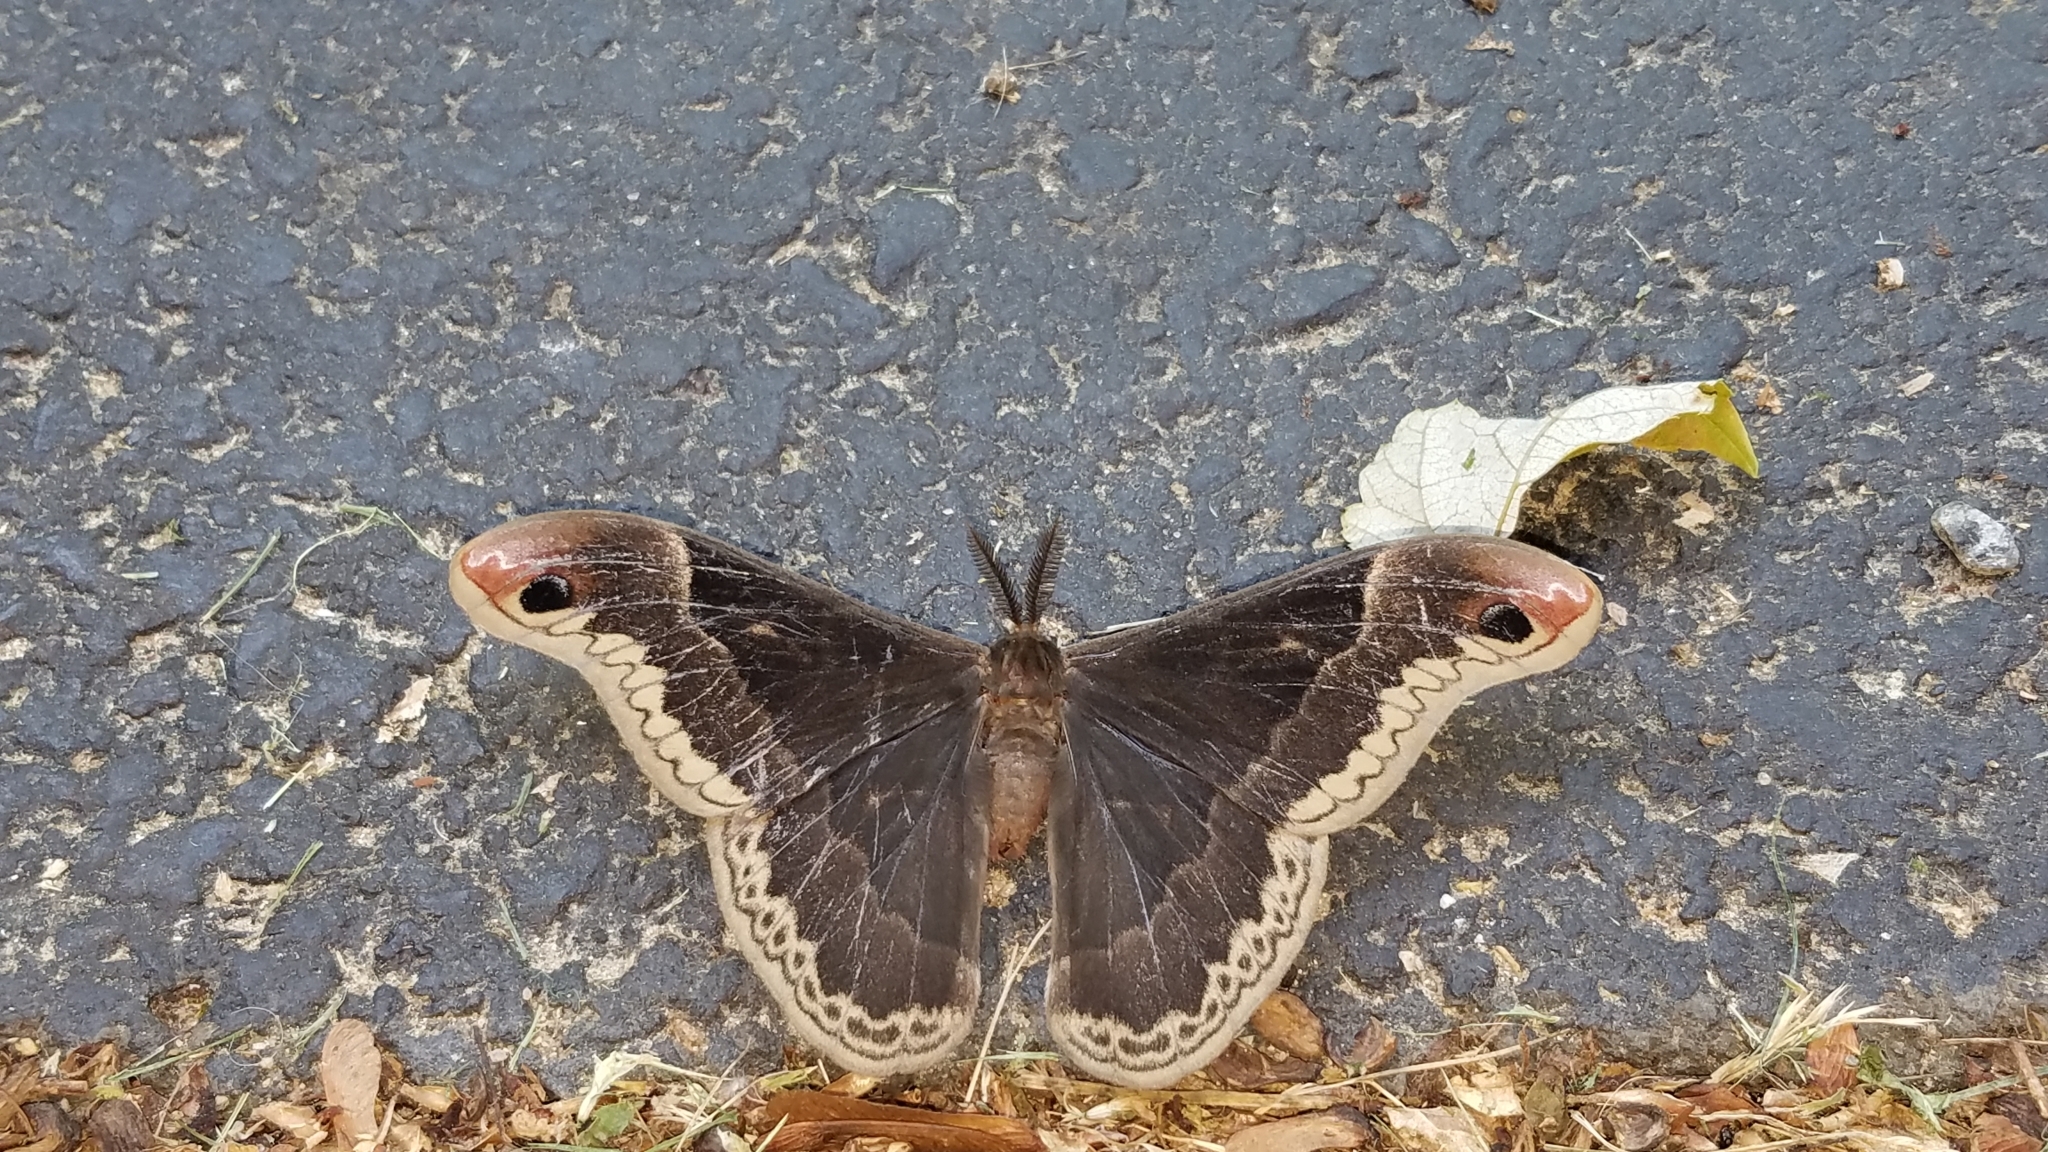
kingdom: Animalia
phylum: Arthropoda
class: Insecta
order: Lepidoptera
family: Saturniidae
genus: Callosamia
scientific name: Callosamia promethea
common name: Promethea silkmoth
